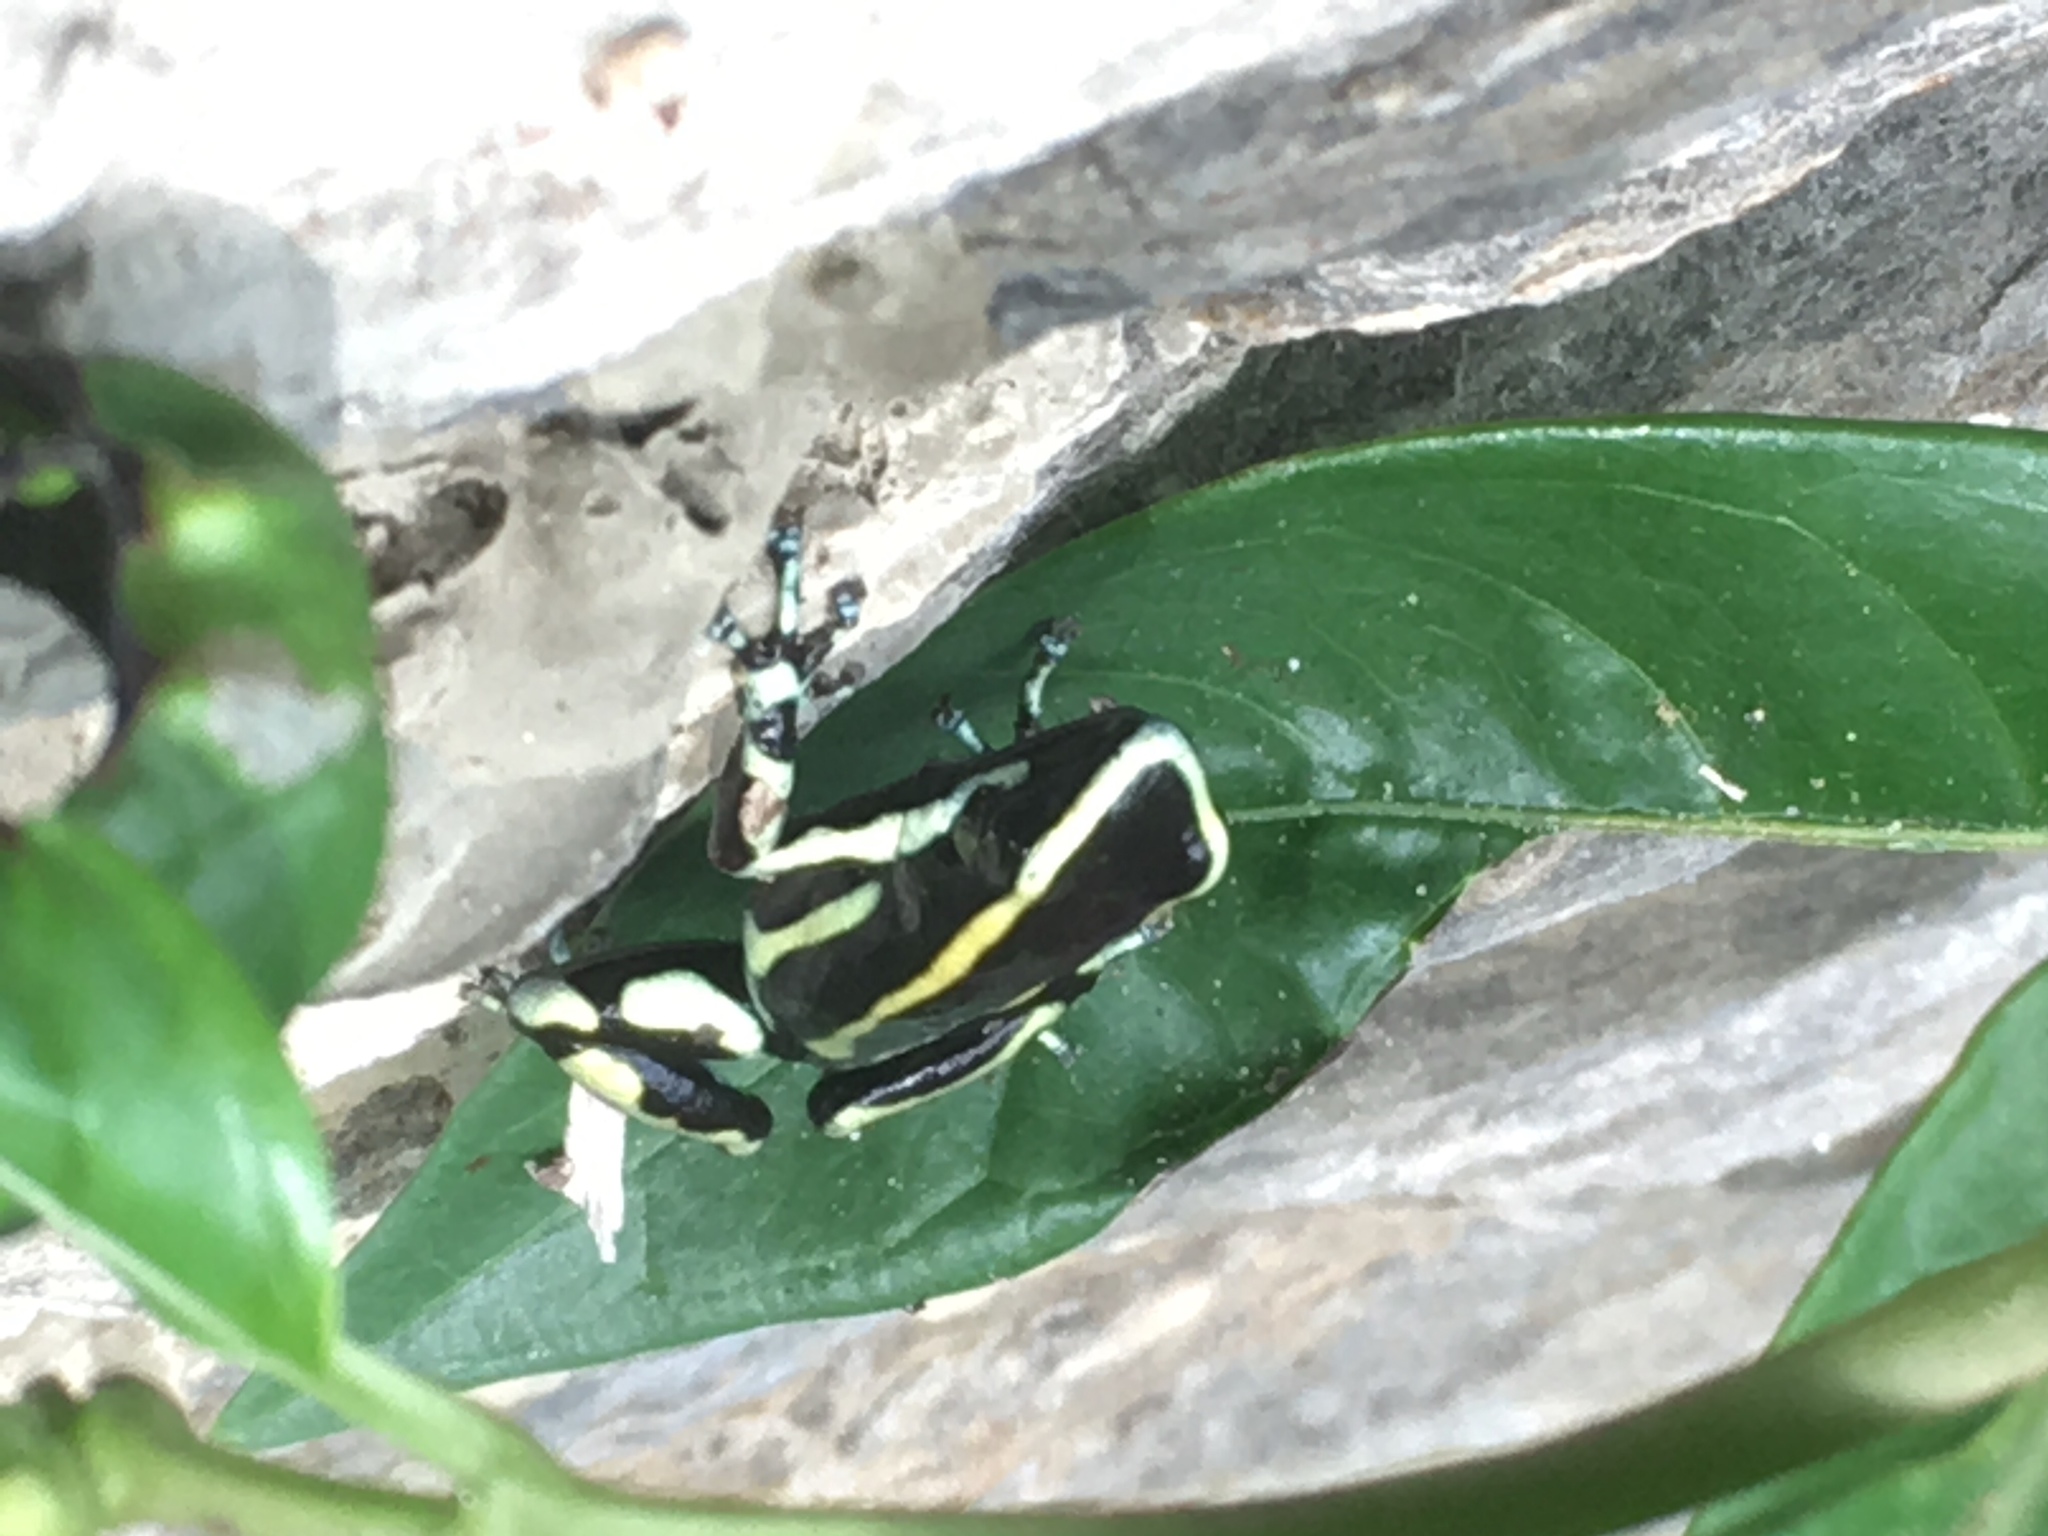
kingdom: Animalia
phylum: Chordata
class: Amphibia
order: Anura
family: Dendrobatidae
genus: Dendrobates
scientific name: Dendrobates truncatus
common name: Yellow-striped poison frog
